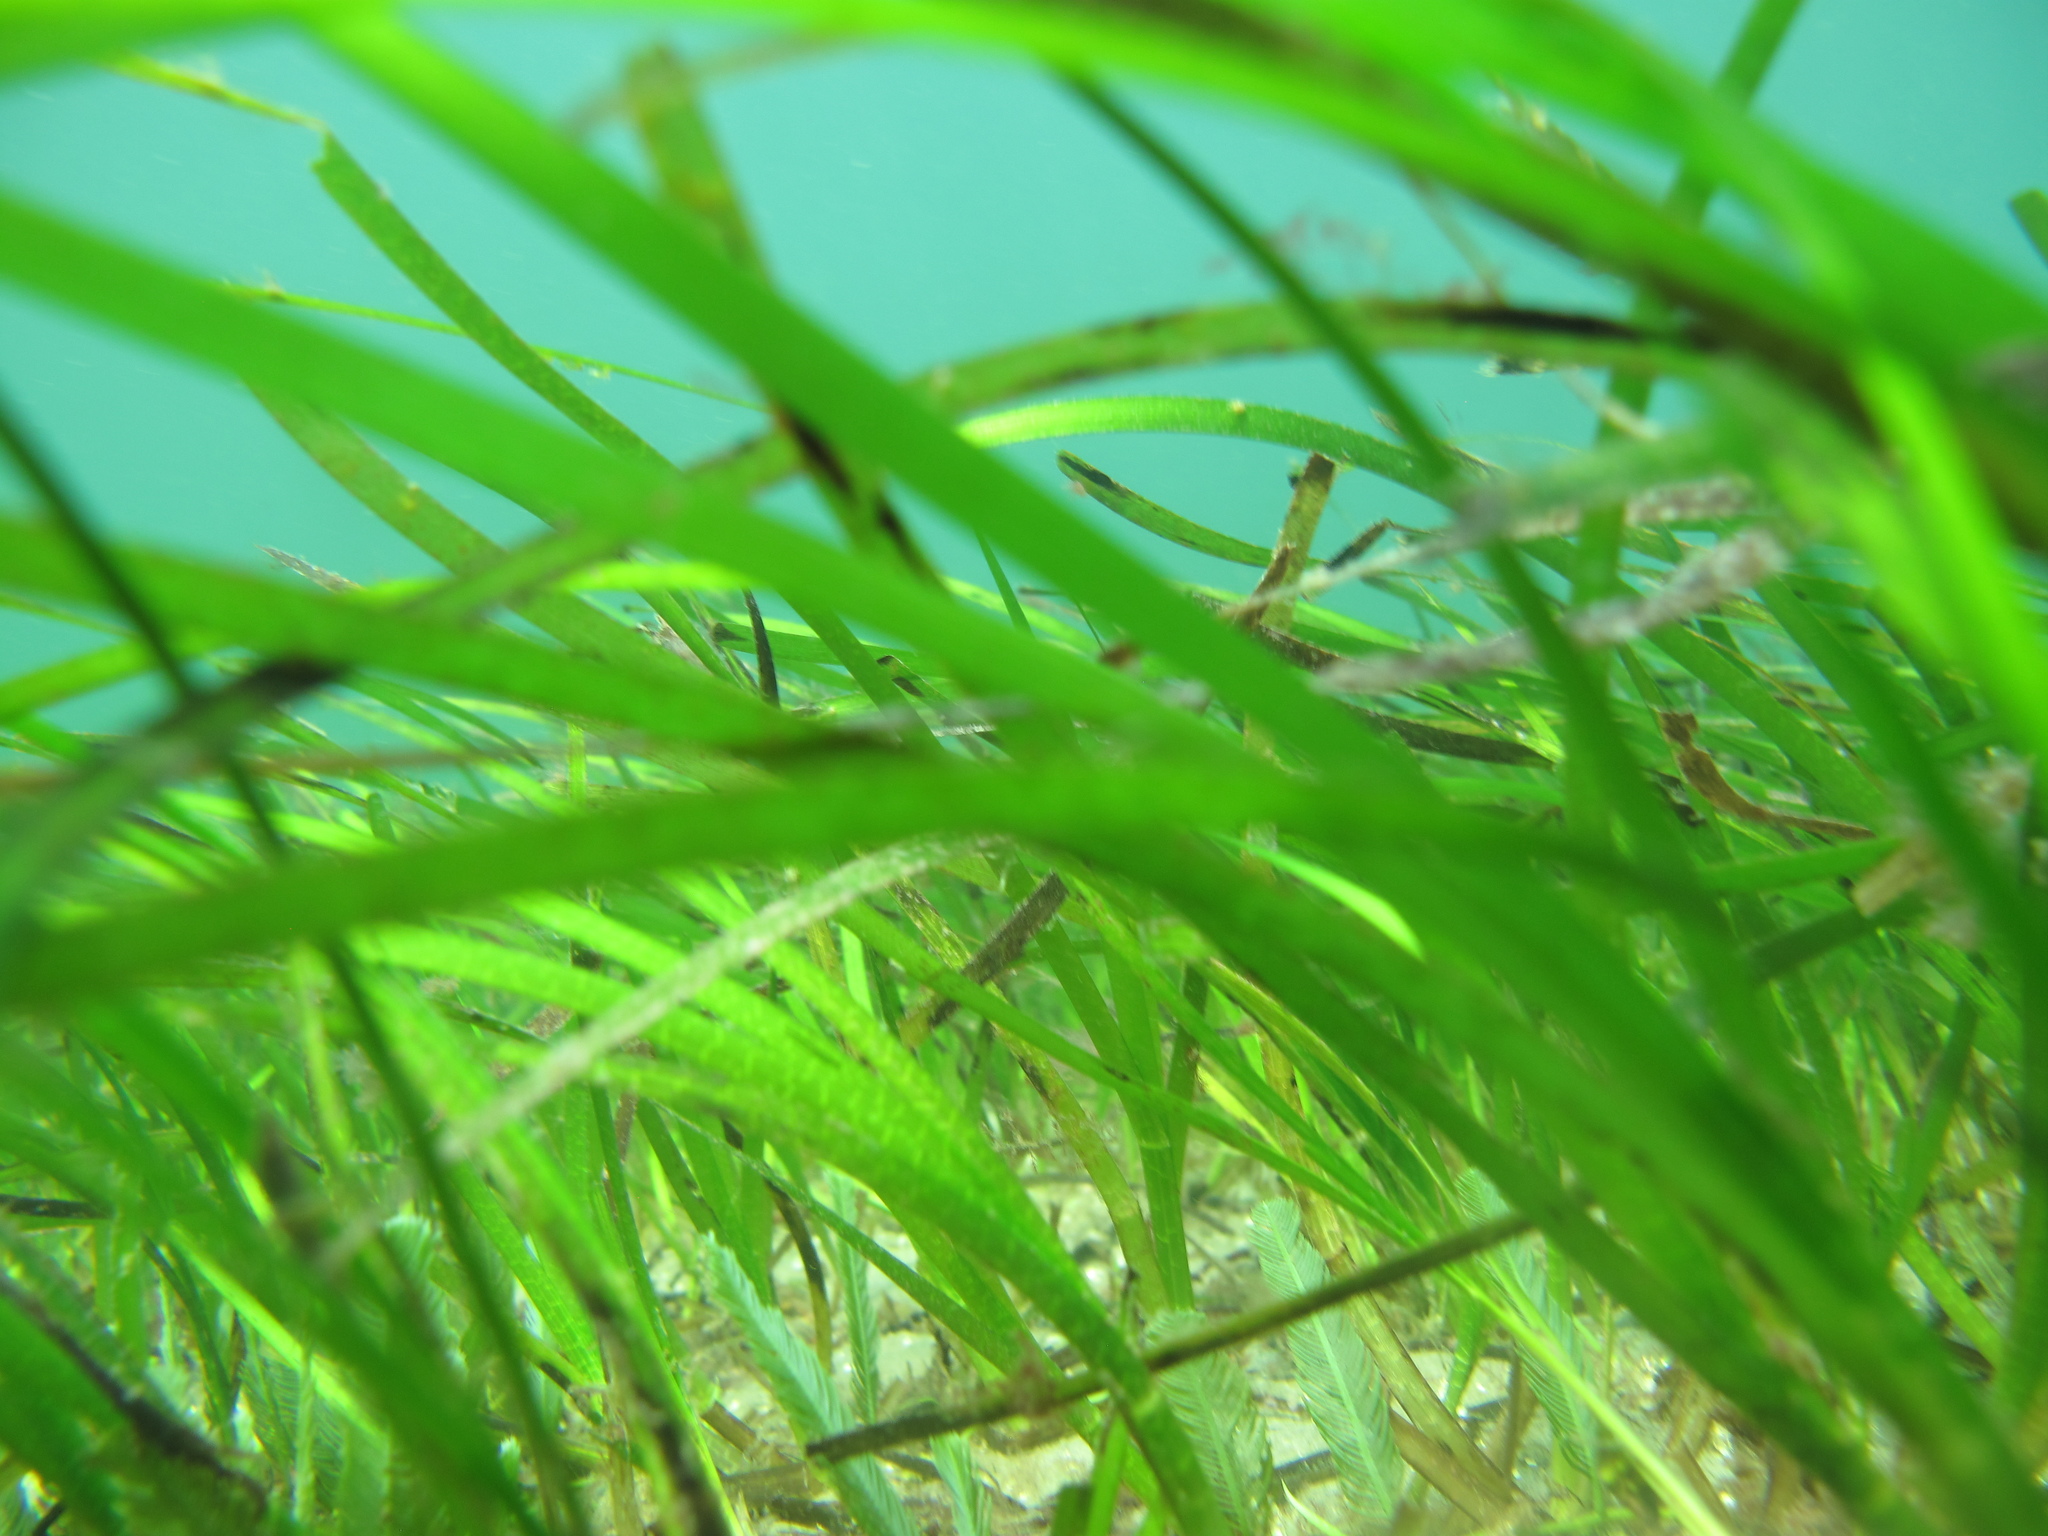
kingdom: Plantae
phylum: Tracheophyta
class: Liliopsida
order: Alismatales
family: Zosteraceae
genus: Zostera
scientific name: Zostera marina
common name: Eelgrass
